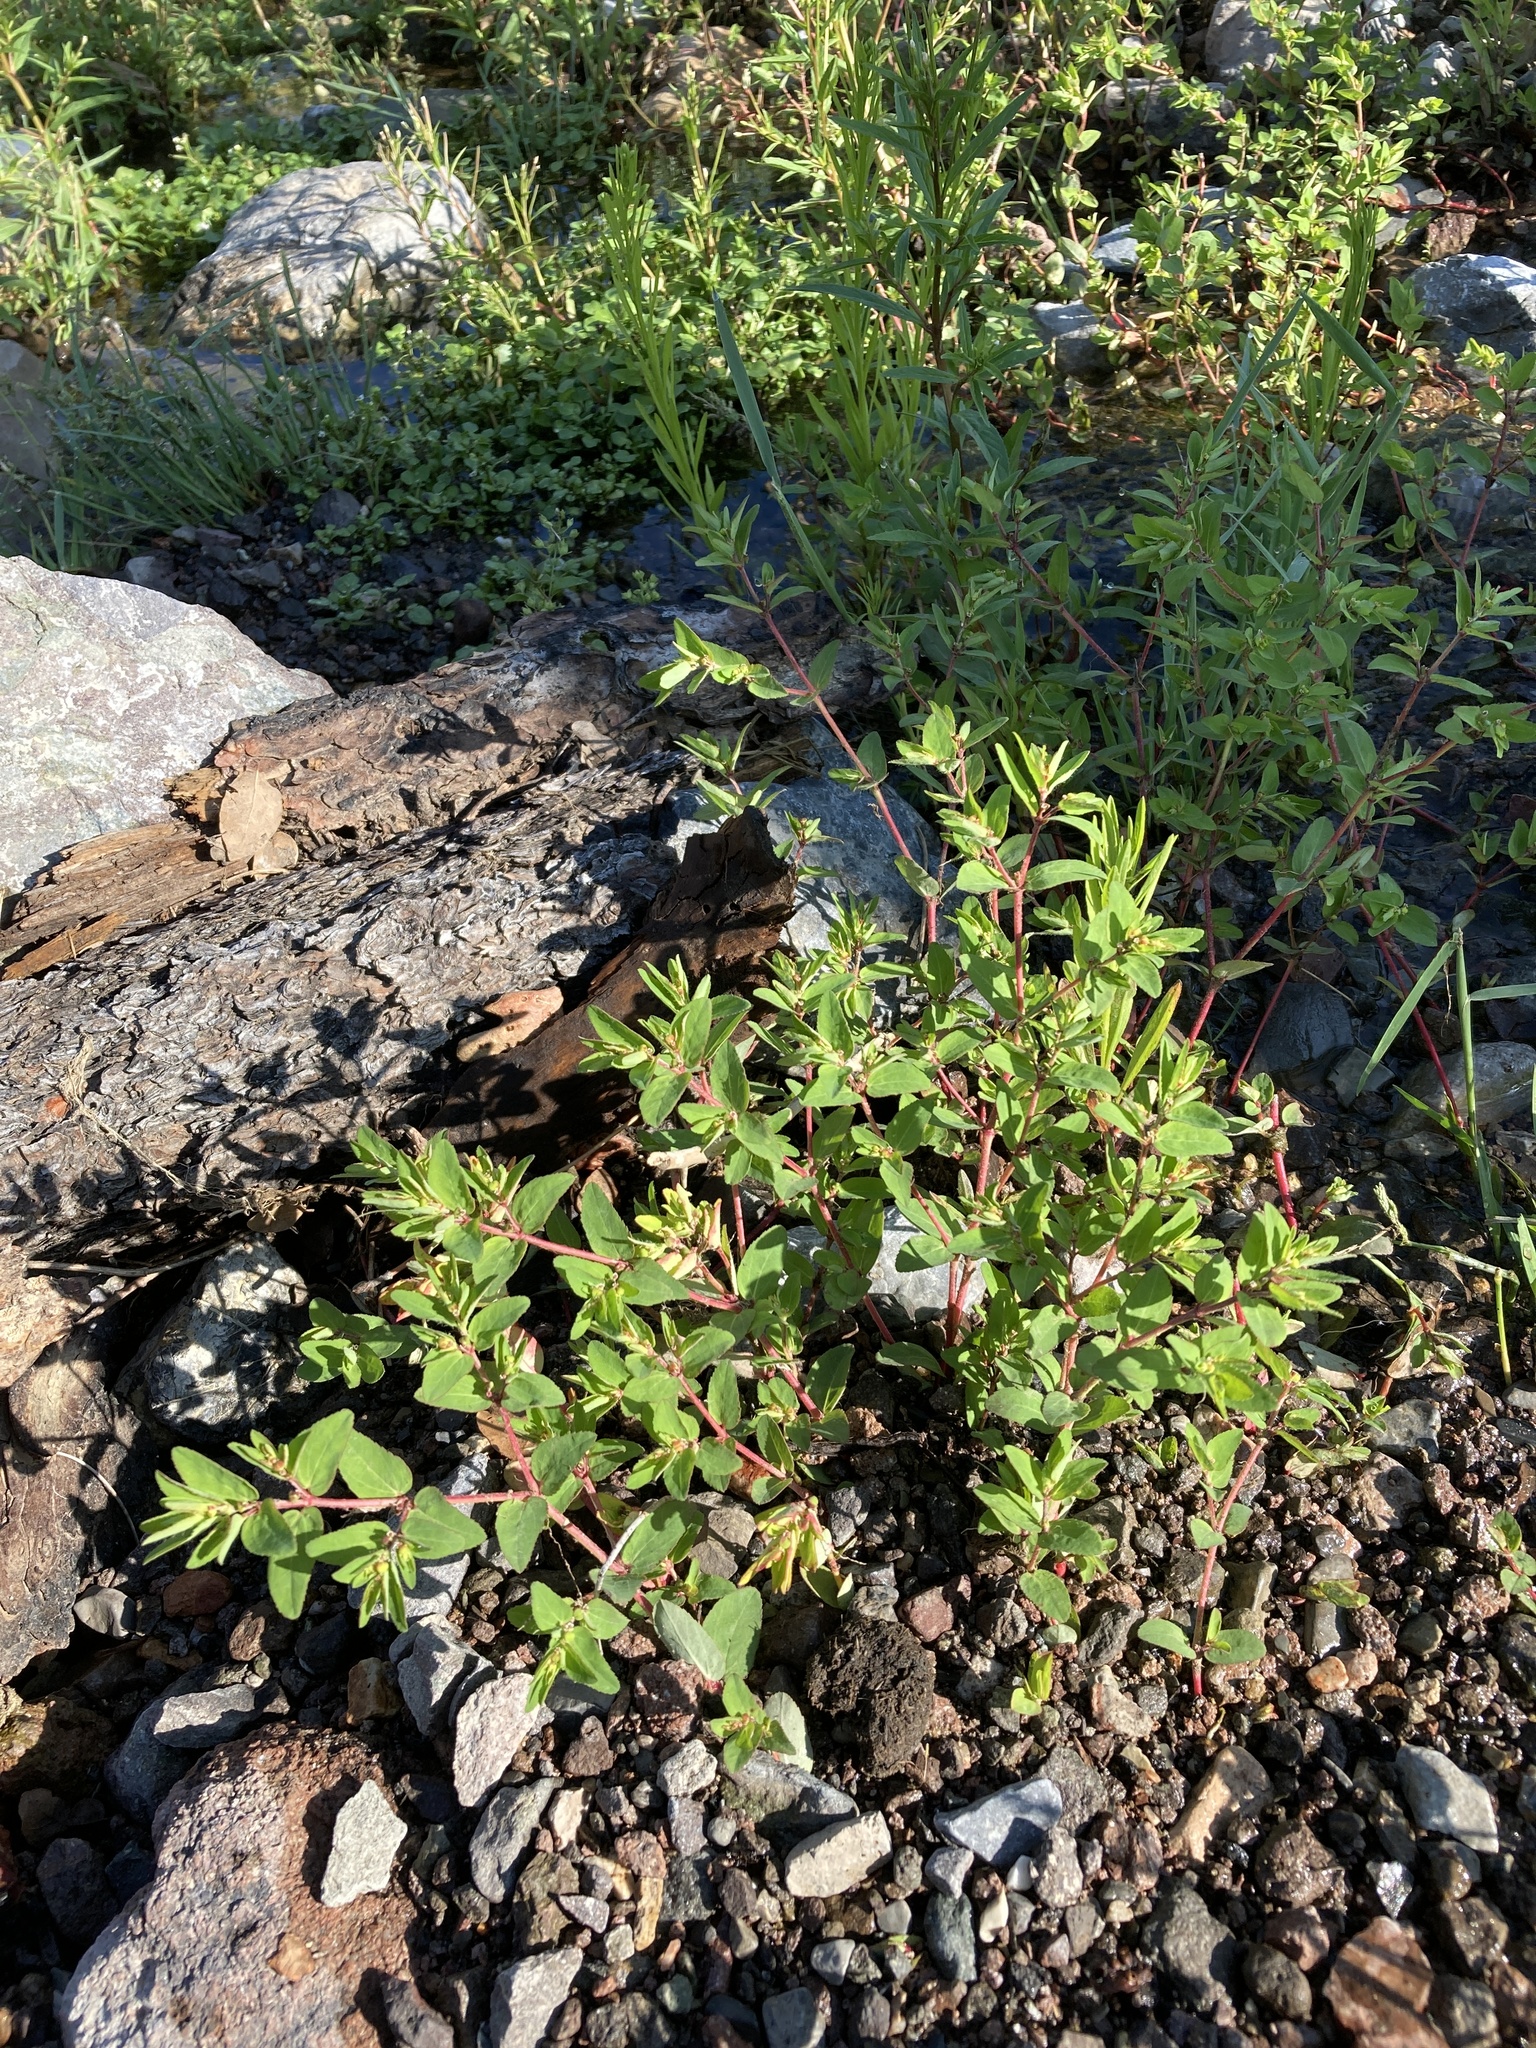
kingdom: Plantae
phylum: Tracheophyta
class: Magnoliopsida
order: Malpighiales
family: Euphorbiaceae
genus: Euphorbia
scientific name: Euphorbia vermiculata
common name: Hairy spurge
